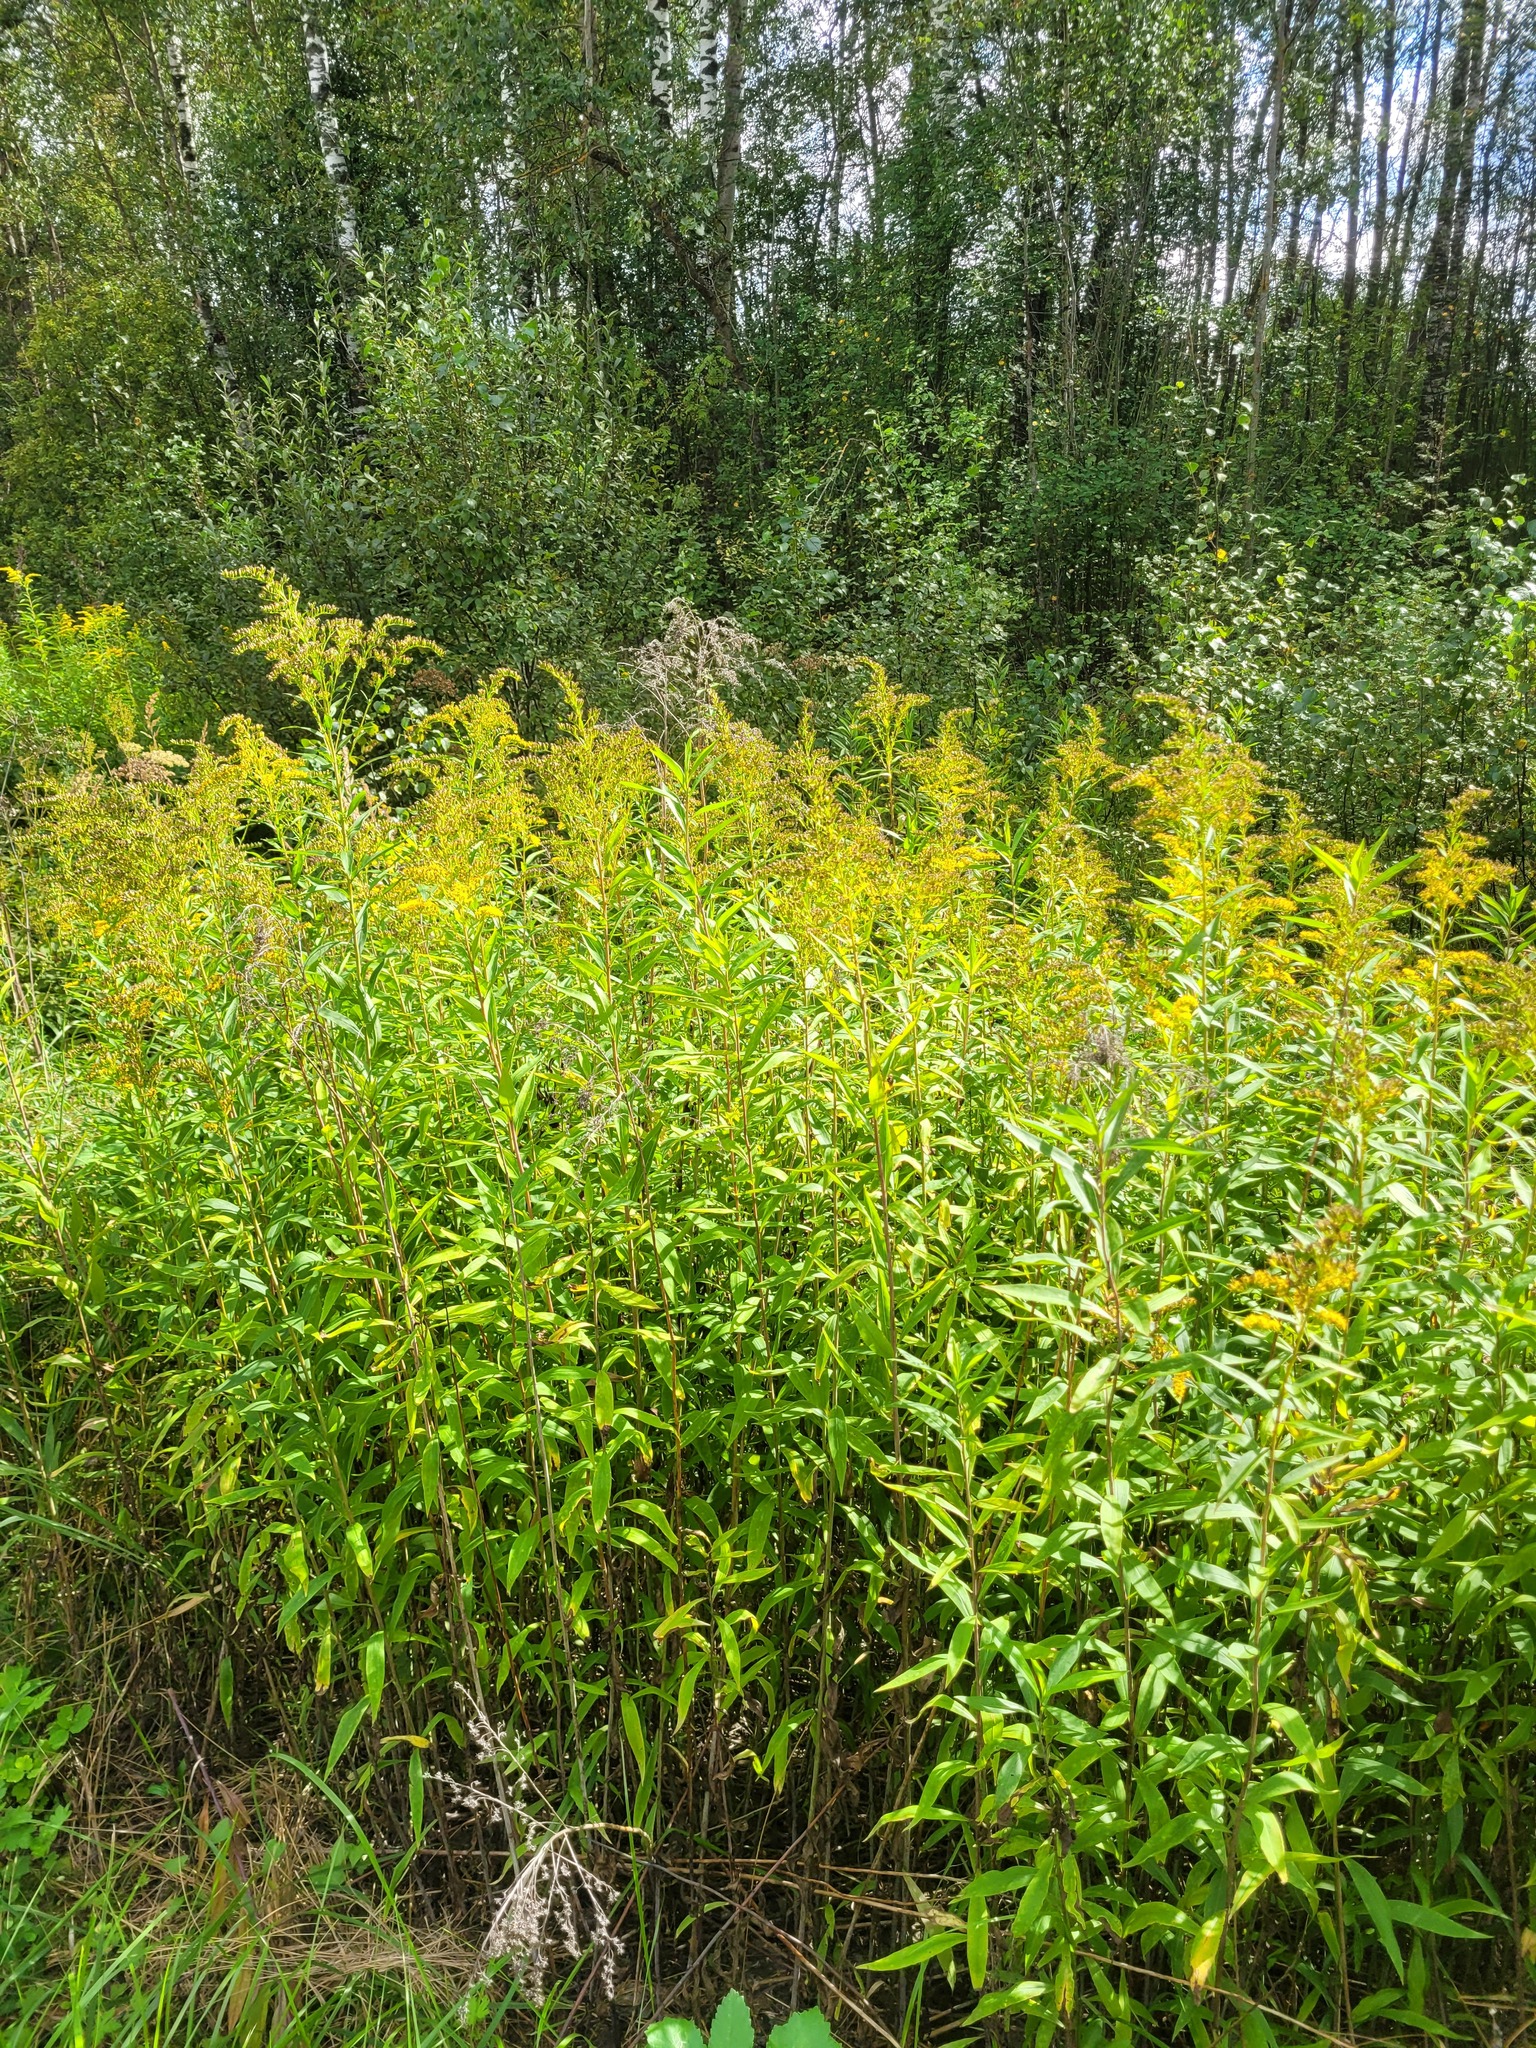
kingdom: Plantae
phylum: Tracheophyta
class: Magnoliopsida
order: Asterales
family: Asteraceae
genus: Solidago
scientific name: Solidago gigantea
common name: Giant goldenrod
